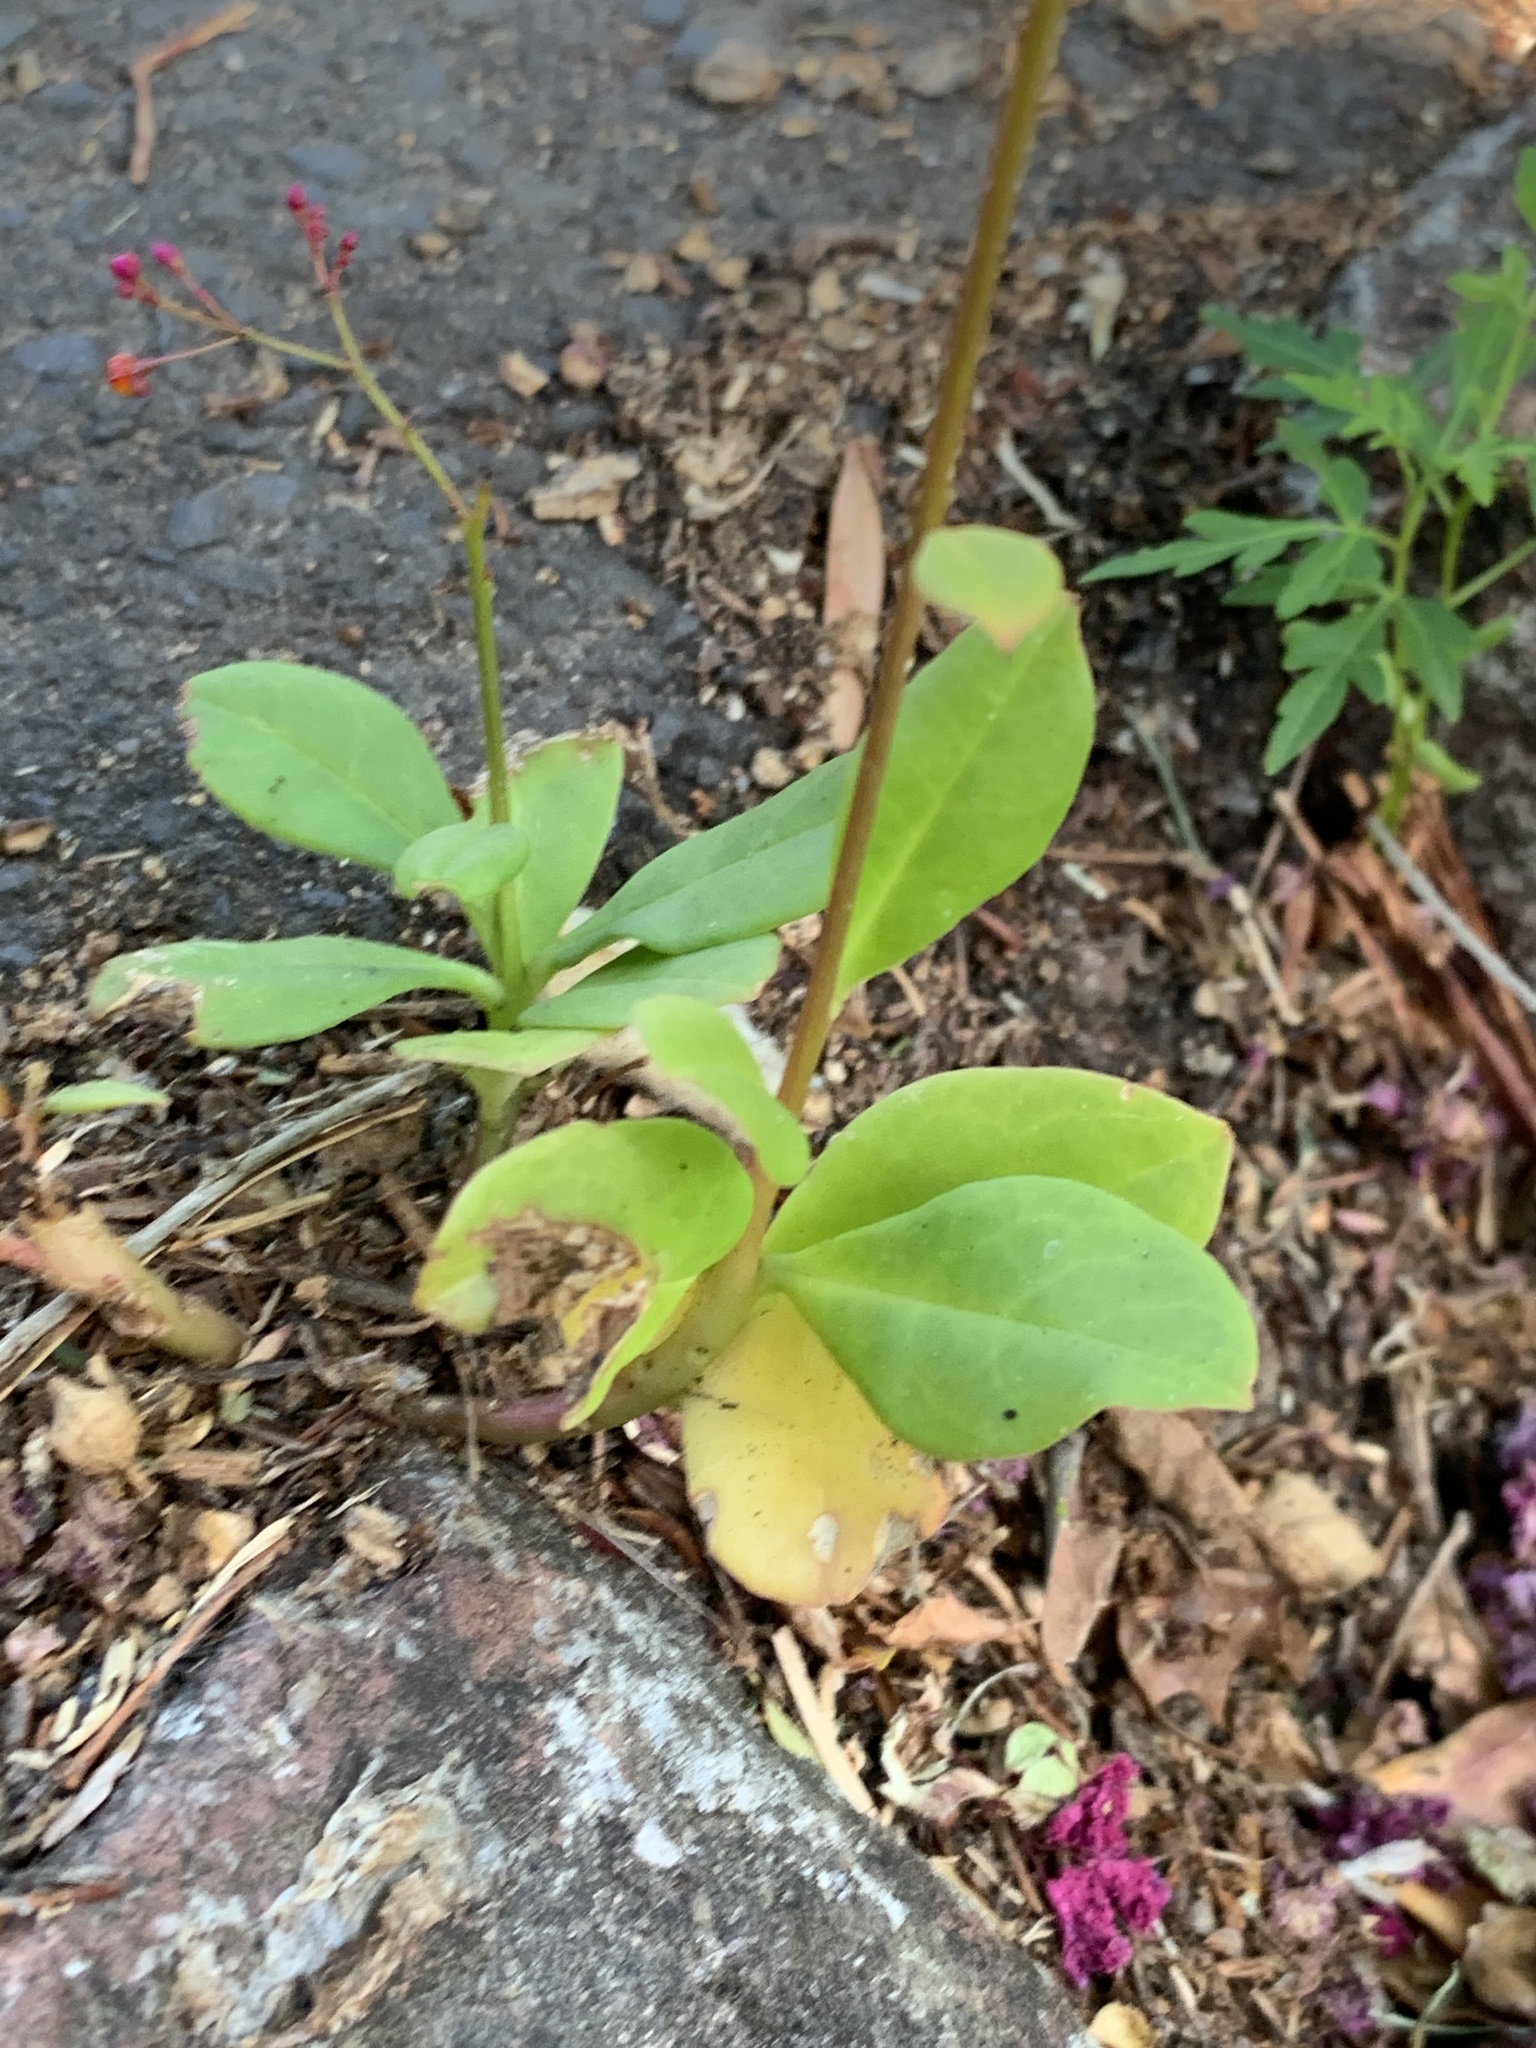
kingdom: Plantae
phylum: Tracheophyta
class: Magnoliopsida
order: Caryophyllales
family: Talinaceae
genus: Talinum
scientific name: Talinum paniculatum
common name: Jewels of opar
